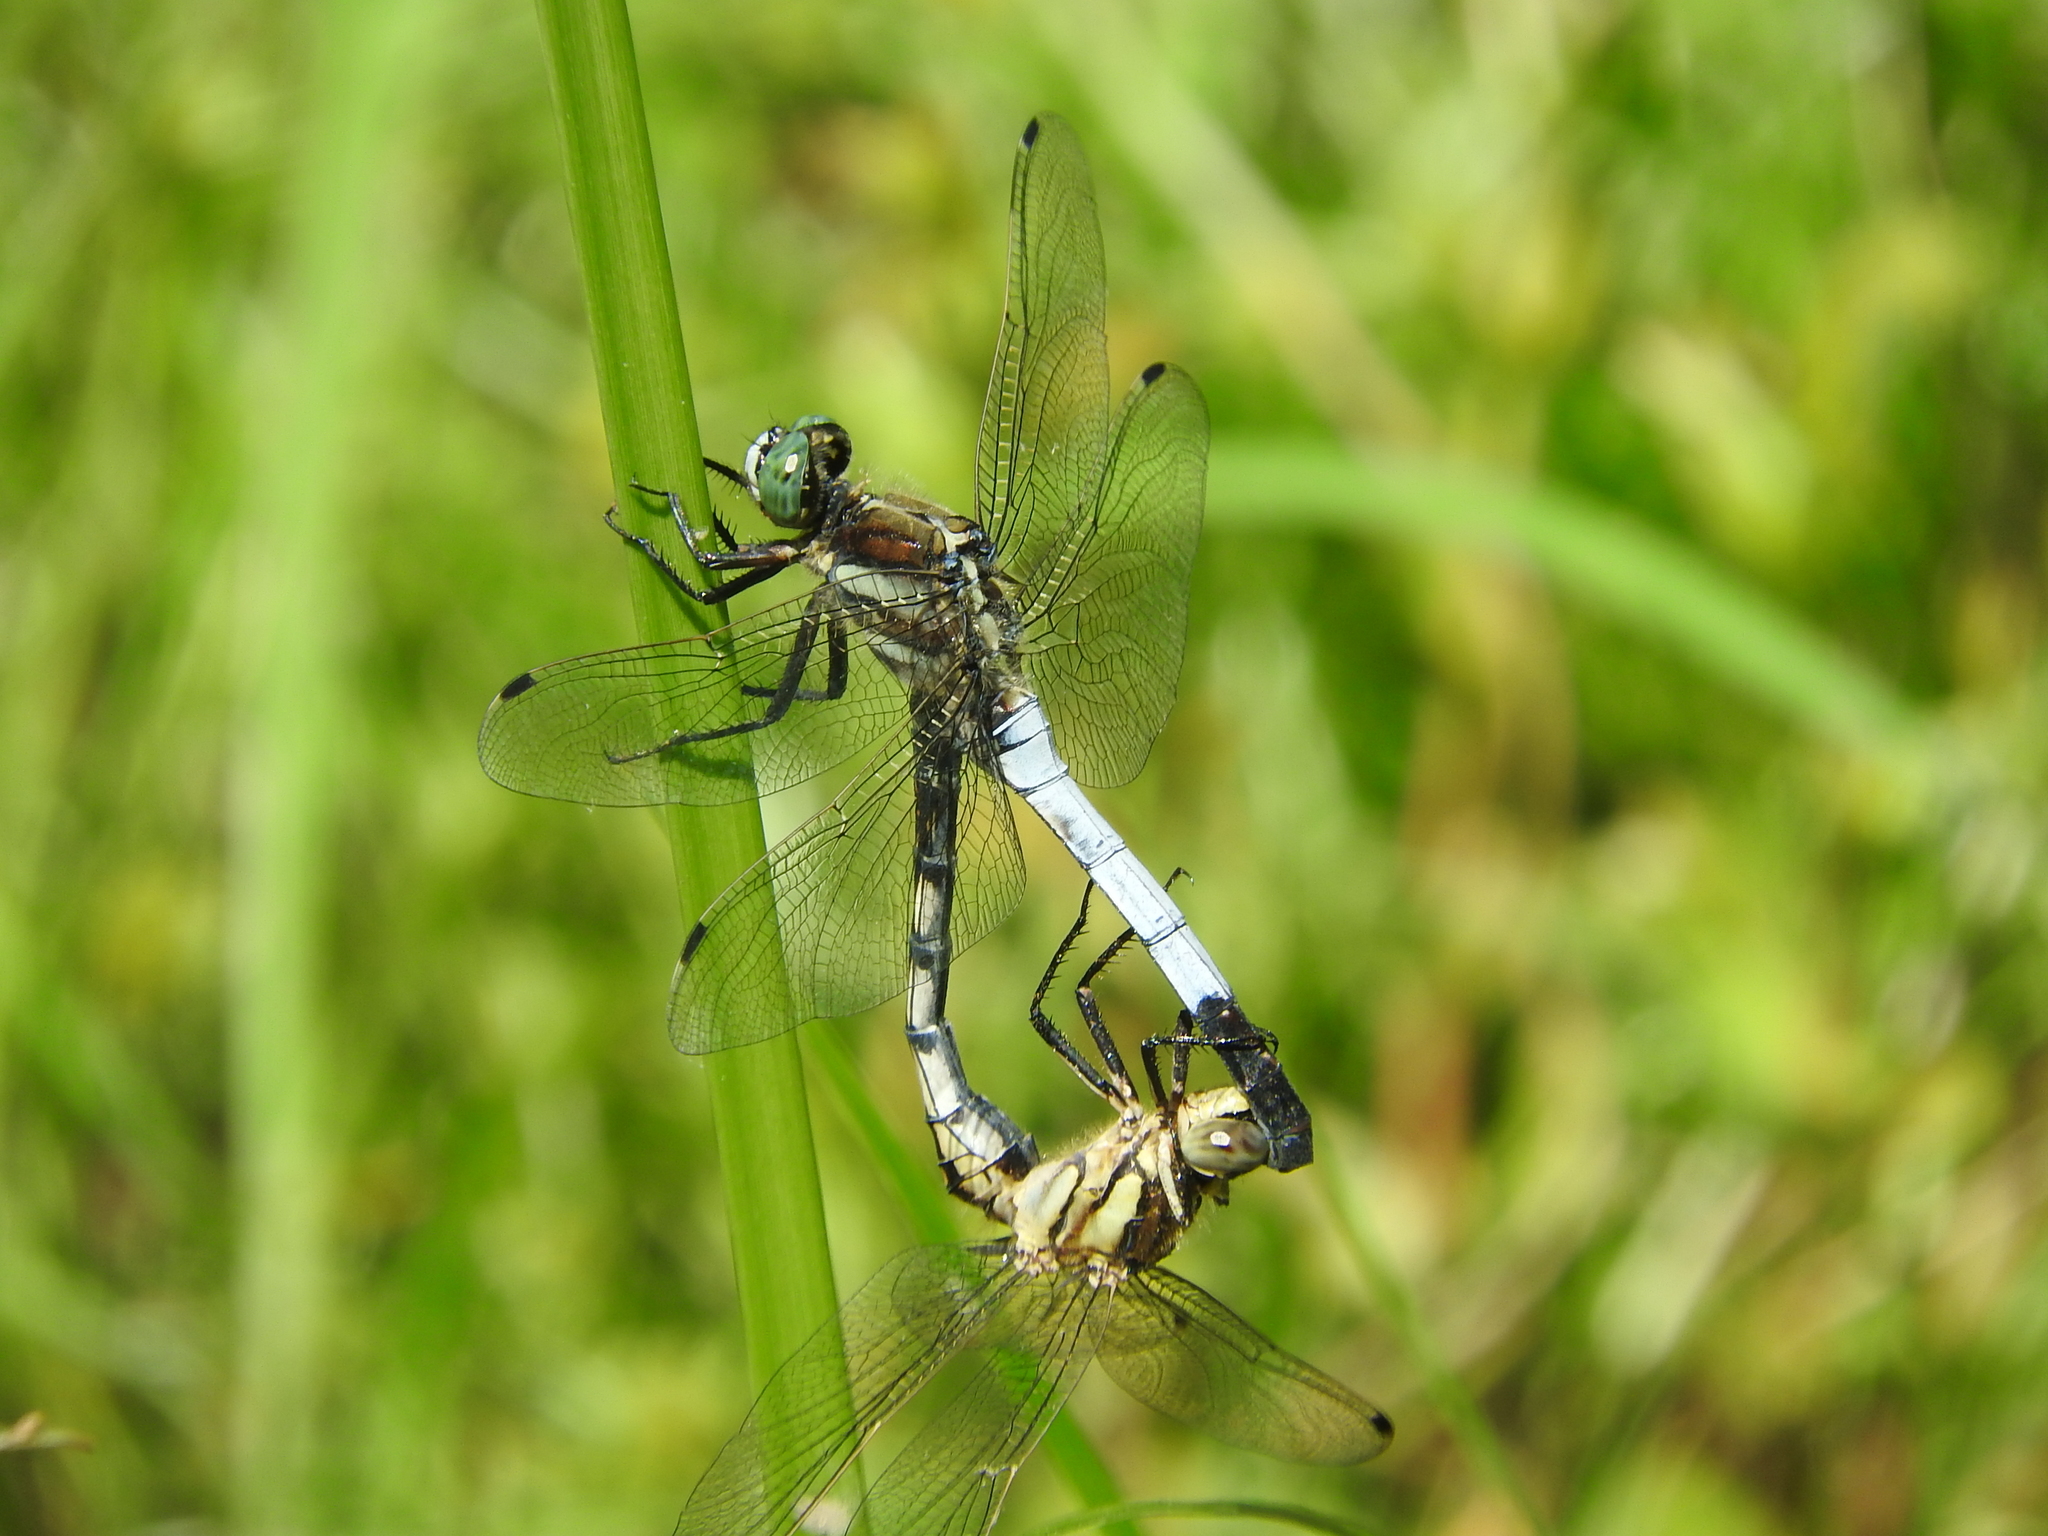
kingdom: Animalia
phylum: Arthropoda
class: Insecta
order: Odonata
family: Libellulidae
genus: Orthetrum
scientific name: Orthetrum albistylum
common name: White-tailed skimmer
